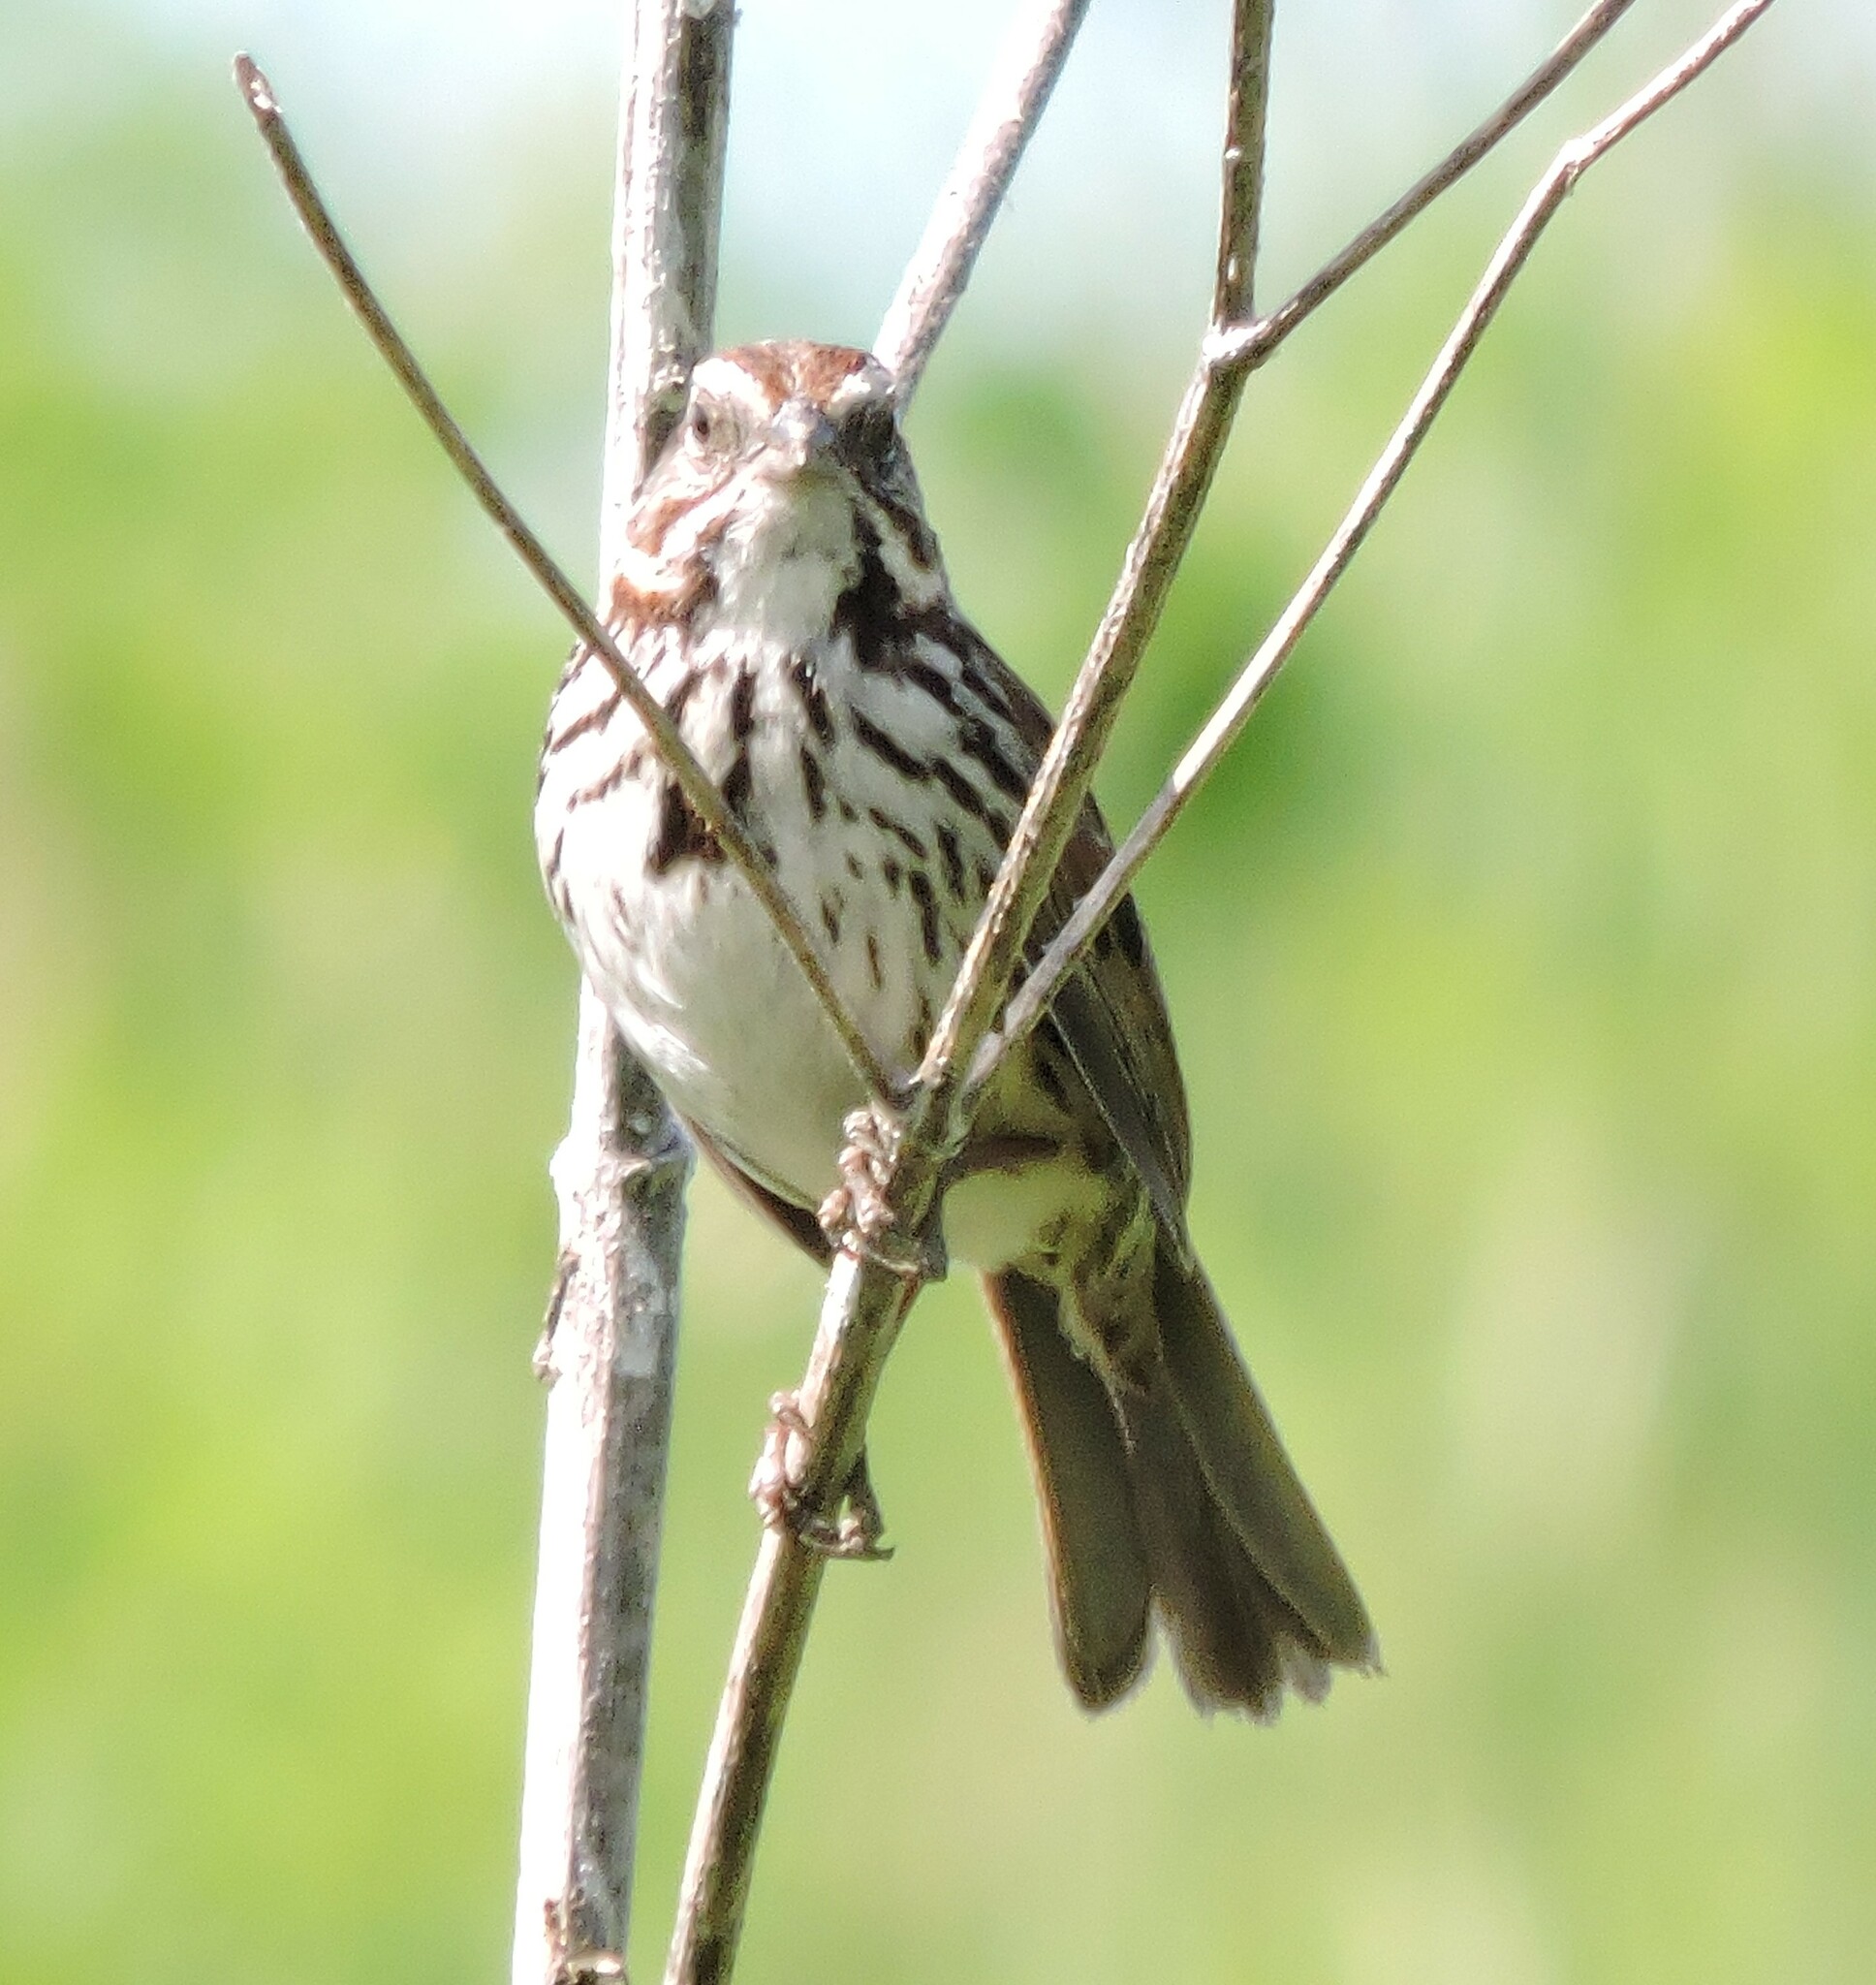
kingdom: Animalia
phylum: Chordata
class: Aves
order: Passeriformes
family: Passerellidae
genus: Melospiza
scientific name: Melospiza melodia
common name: Song sparrow
